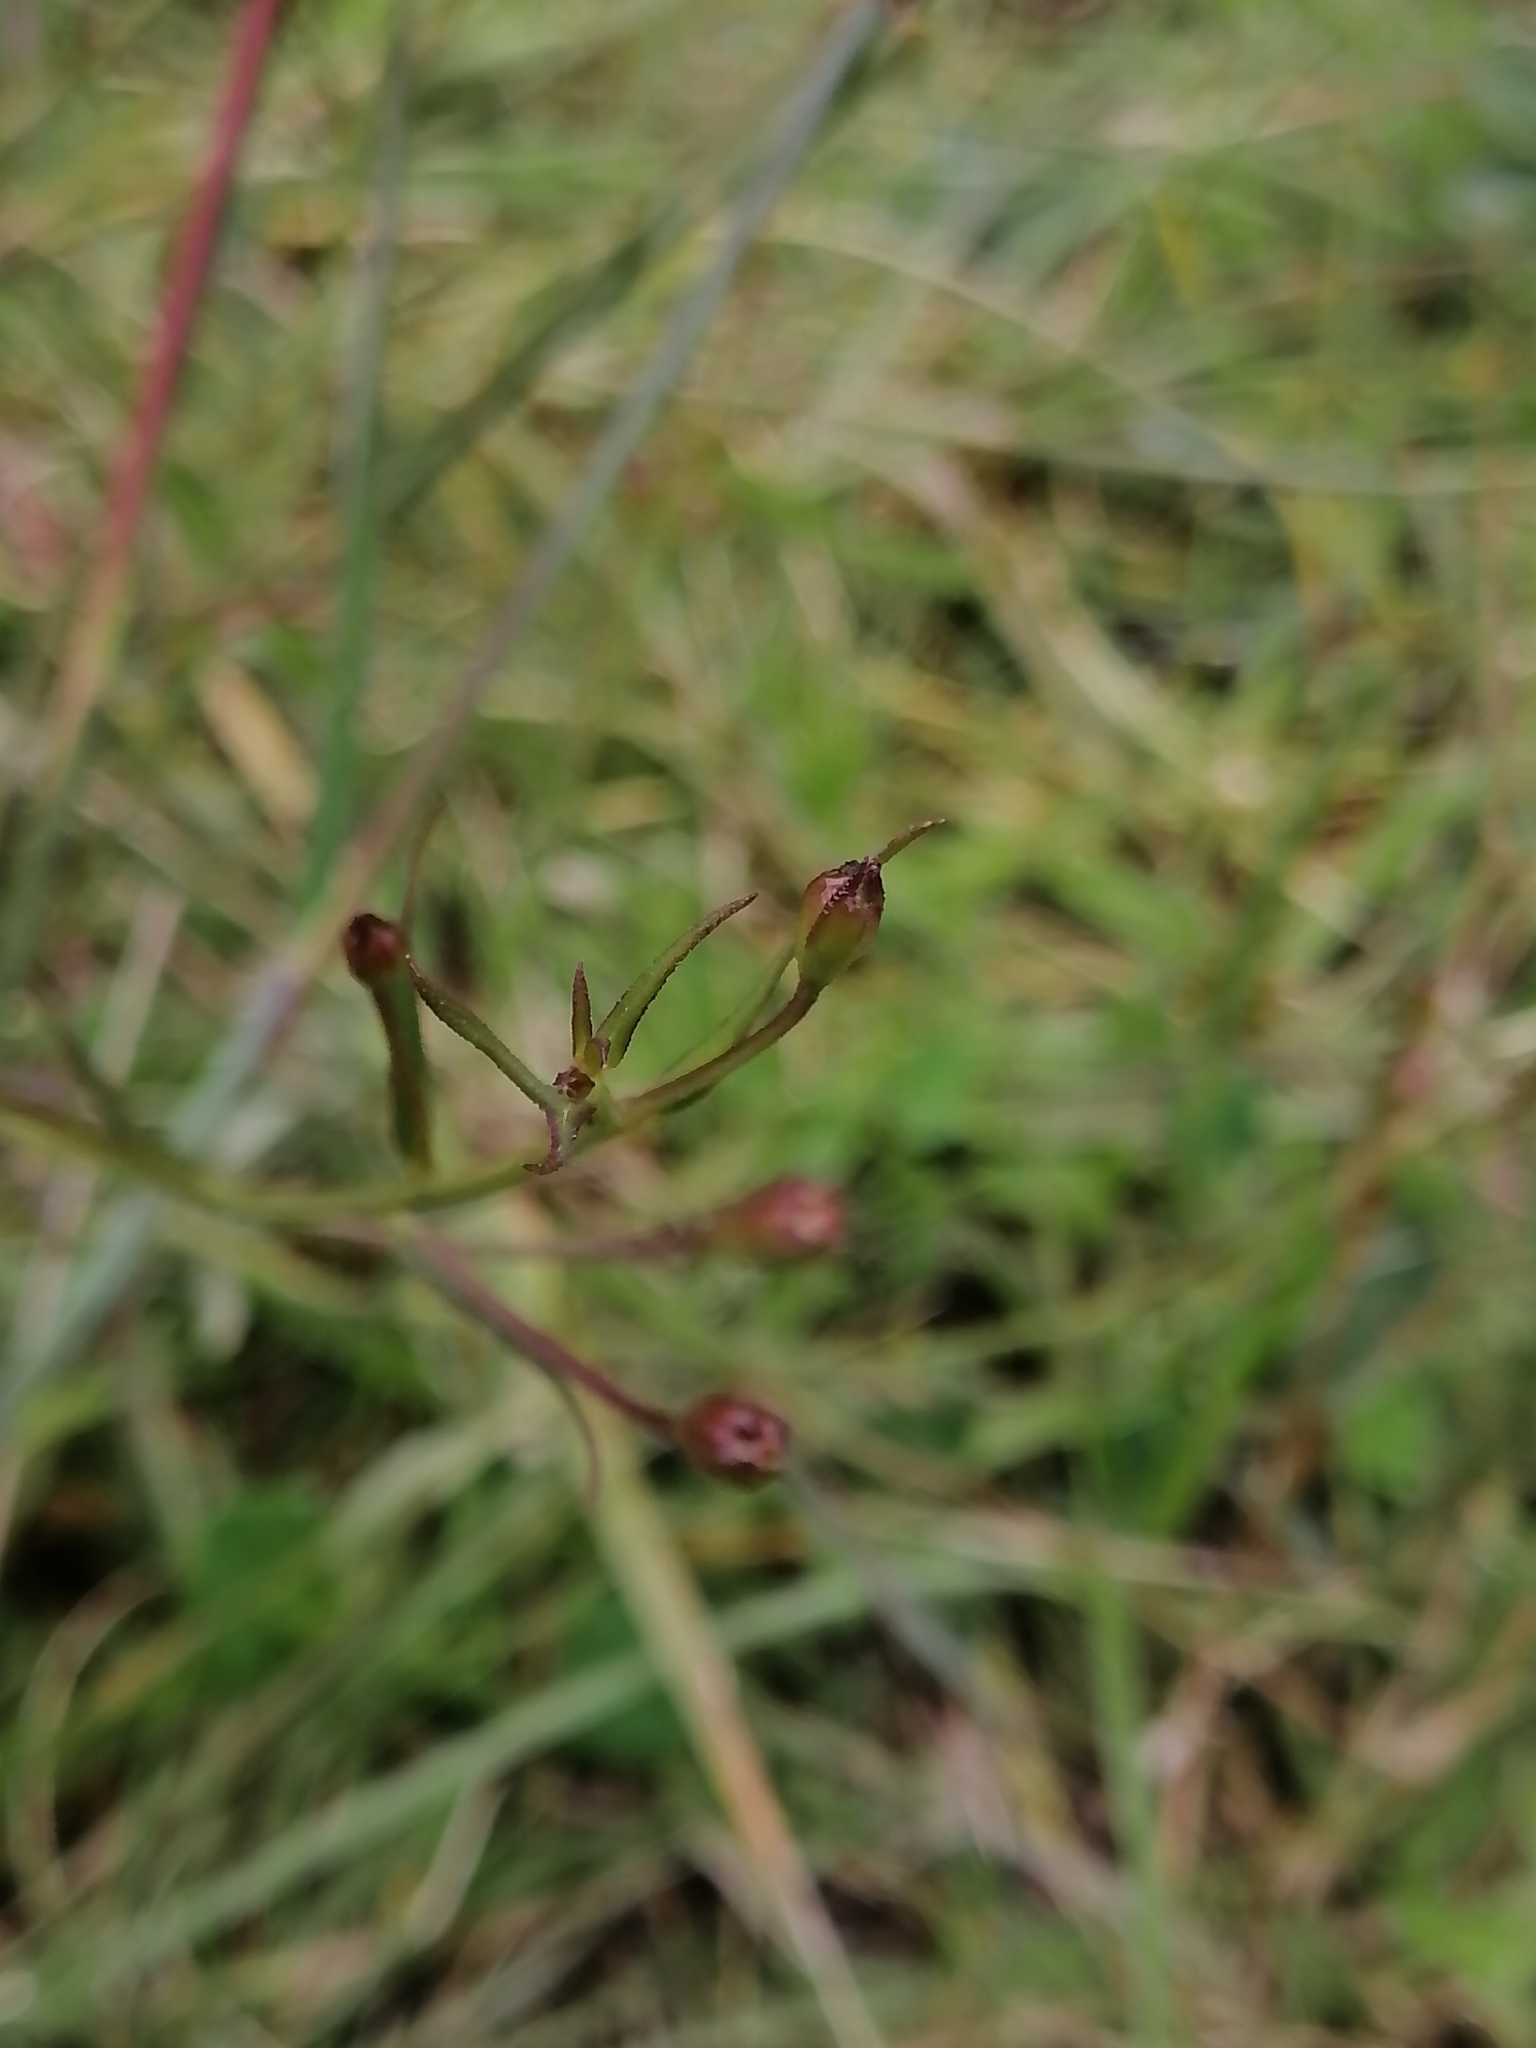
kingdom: Plantae
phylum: Tracheophyta
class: Magnoliopsida
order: Lamiales
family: Orobanchaceae
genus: Agalinis
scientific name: Agalinis peduncularis
